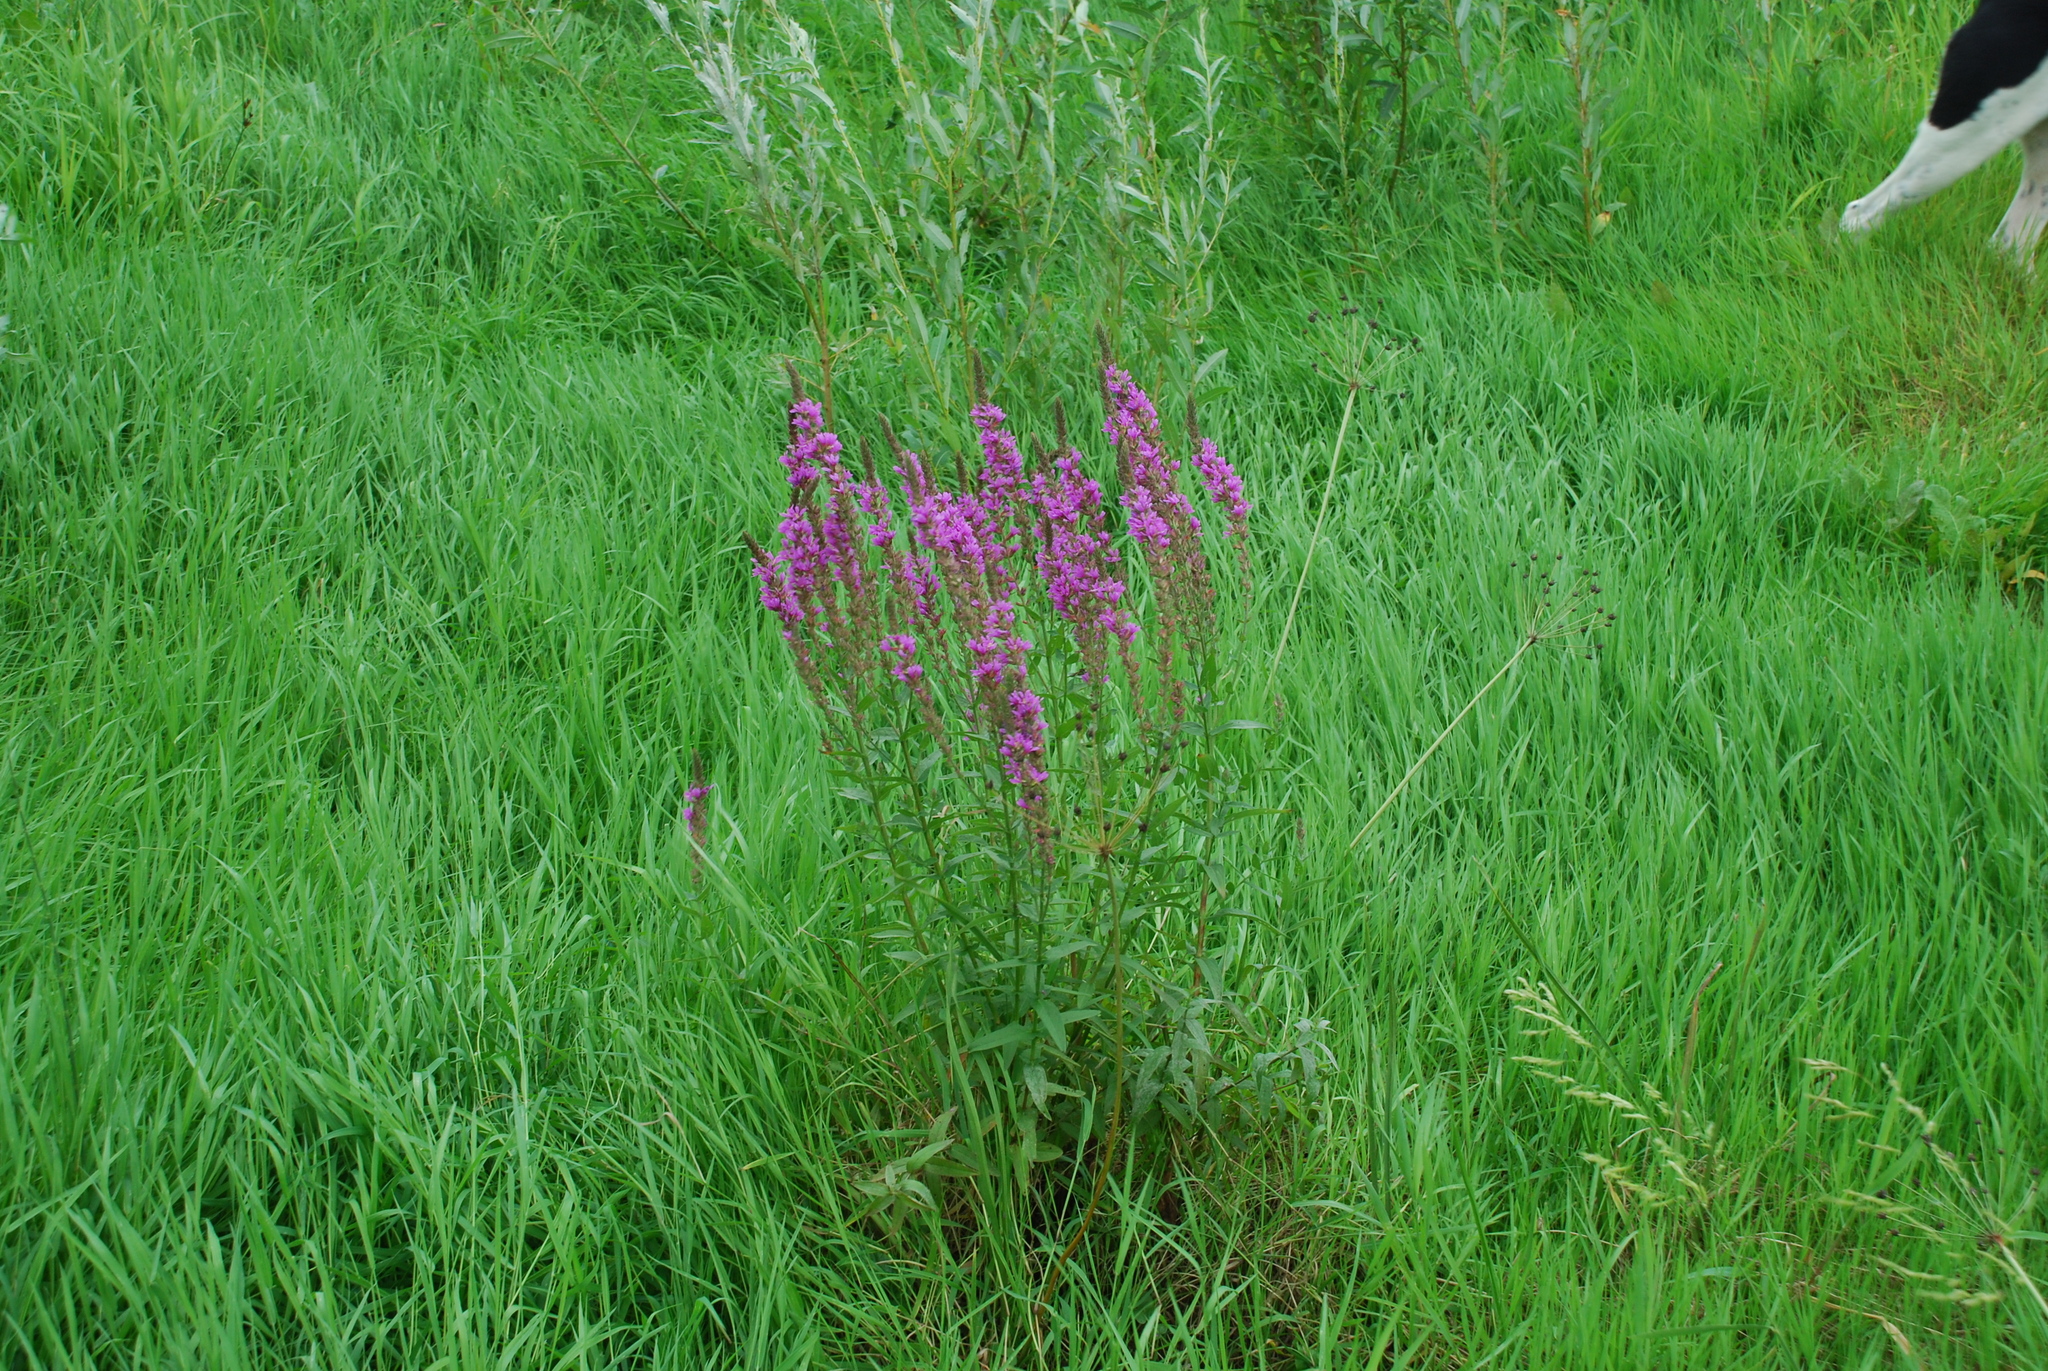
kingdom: Plantae
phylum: Tracheophyta
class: Magnoliopsida
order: Myrtales
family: Lythraceae
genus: Lythrum
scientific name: Lythrum salicaria
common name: Purple loosestrife
